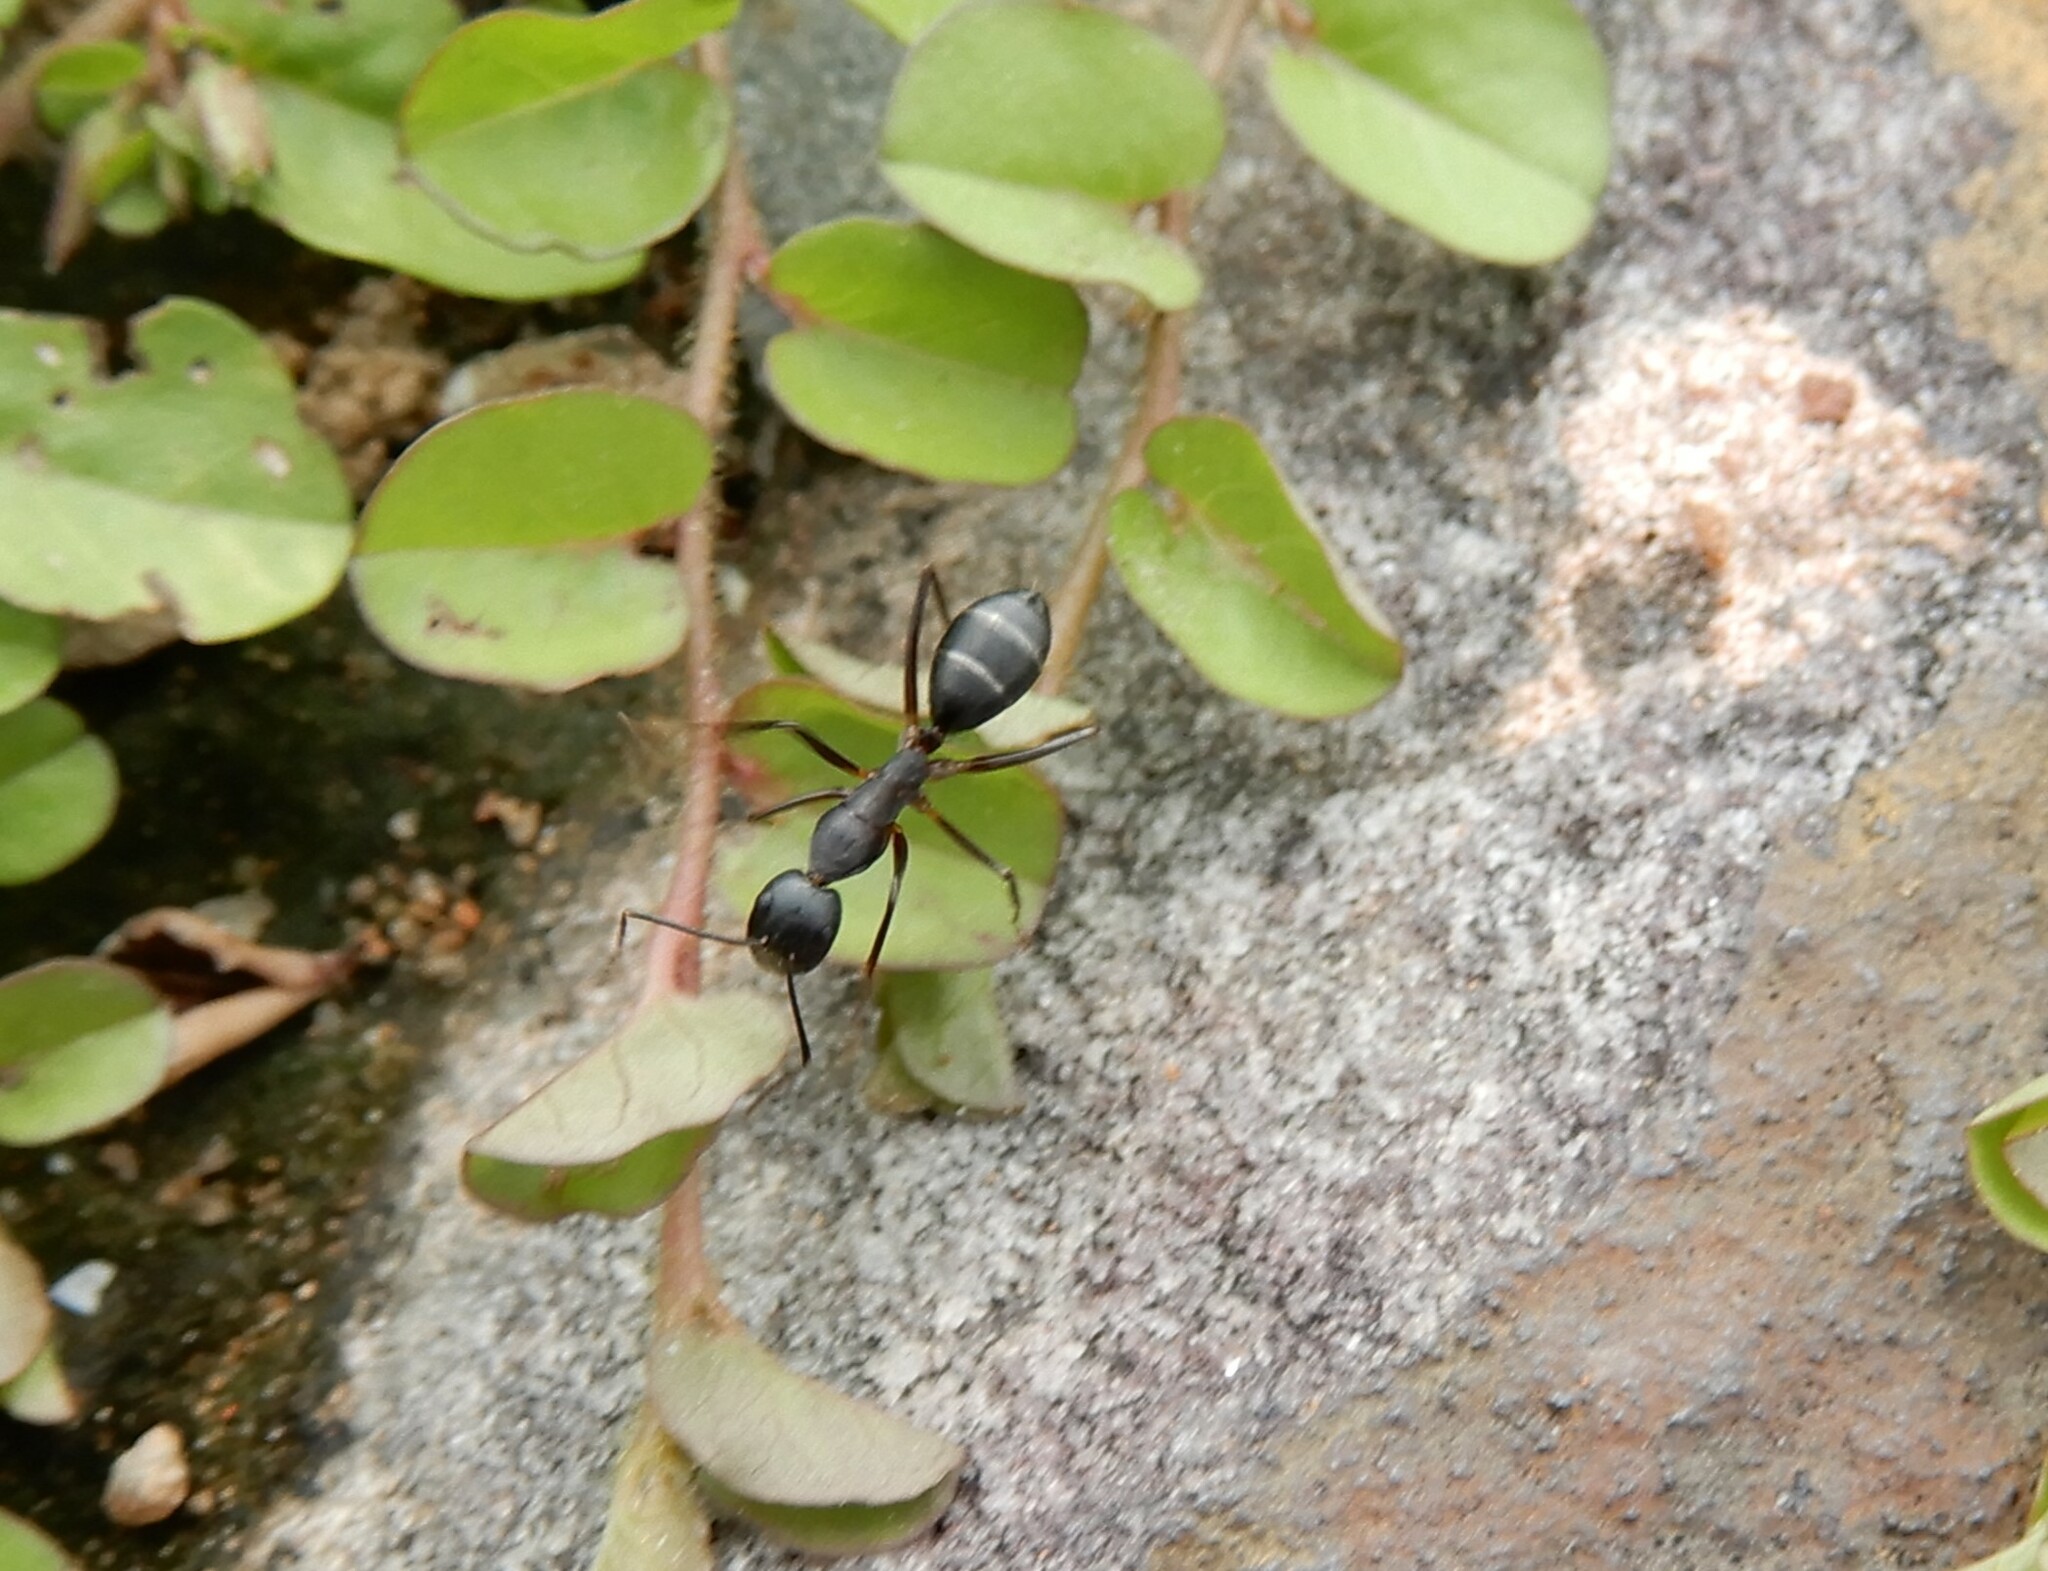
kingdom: Animalia
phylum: Arthropoda
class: Insecta
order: Hymenoptera
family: Formicidae
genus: Camponotus
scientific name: Camponotus compressus
